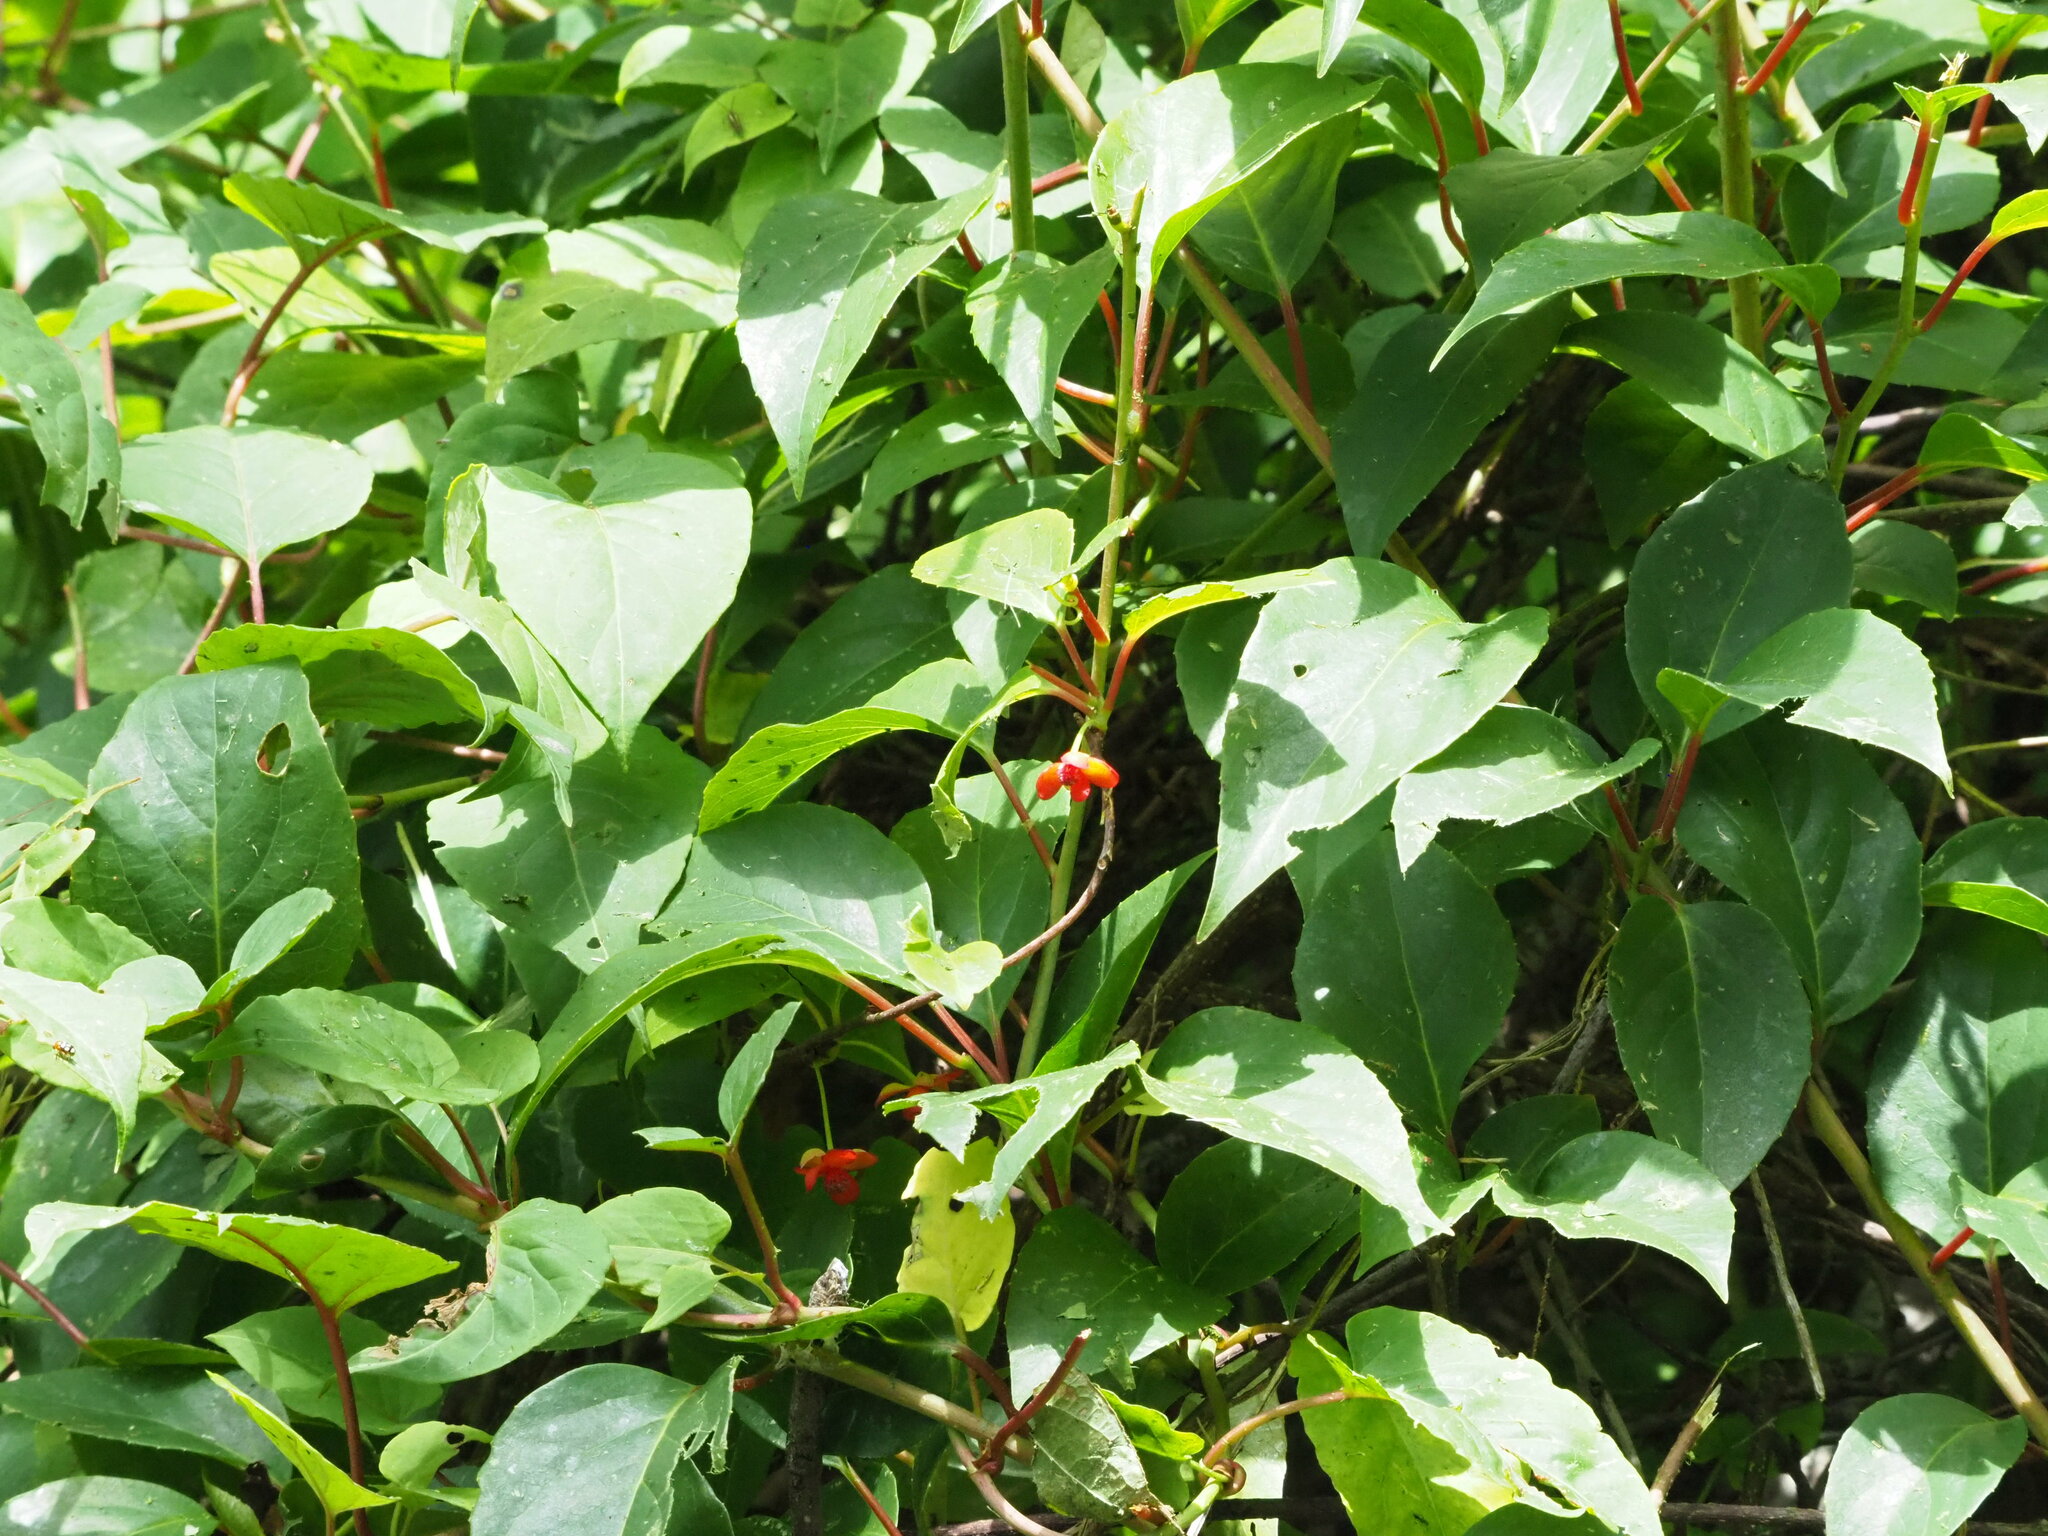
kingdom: Plantae
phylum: Tracheophyta
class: Magnoliopsida
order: Austrobaileyales
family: Schisandraceae
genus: Schisandra
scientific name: Schisandra arisanensis
